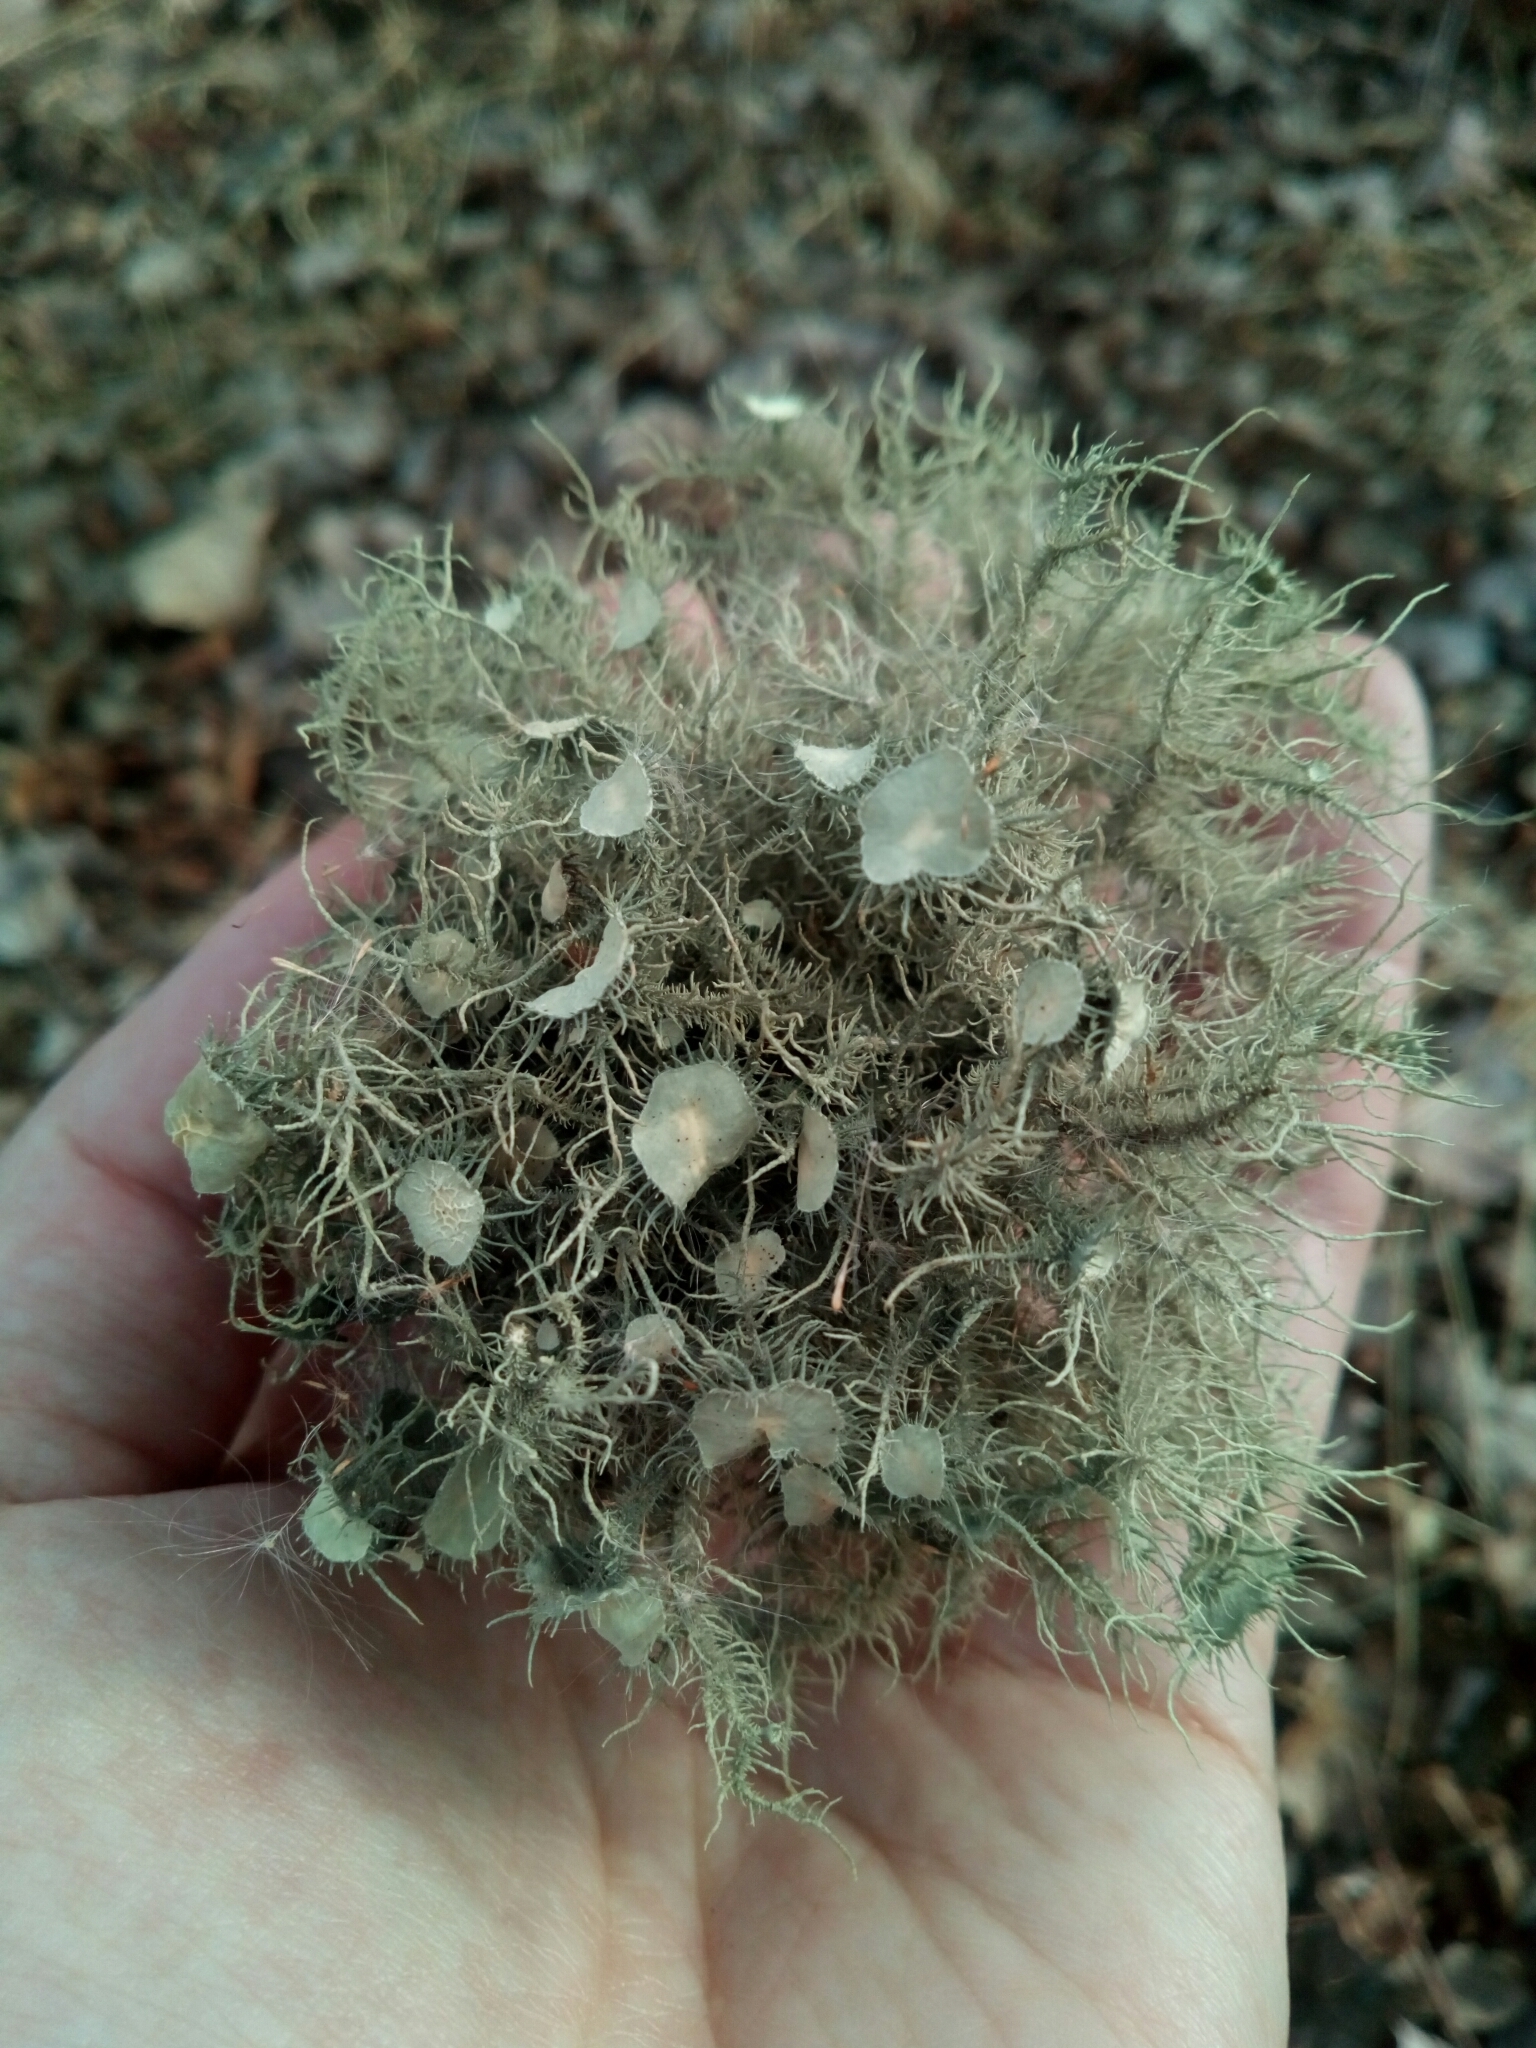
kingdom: Fungi
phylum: Ascomycota
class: Lecanoromycetes
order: Lecanorales
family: Parmeliaceae
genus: Usnea
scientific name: Usnea strigosa
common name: Bushy beard lichen
